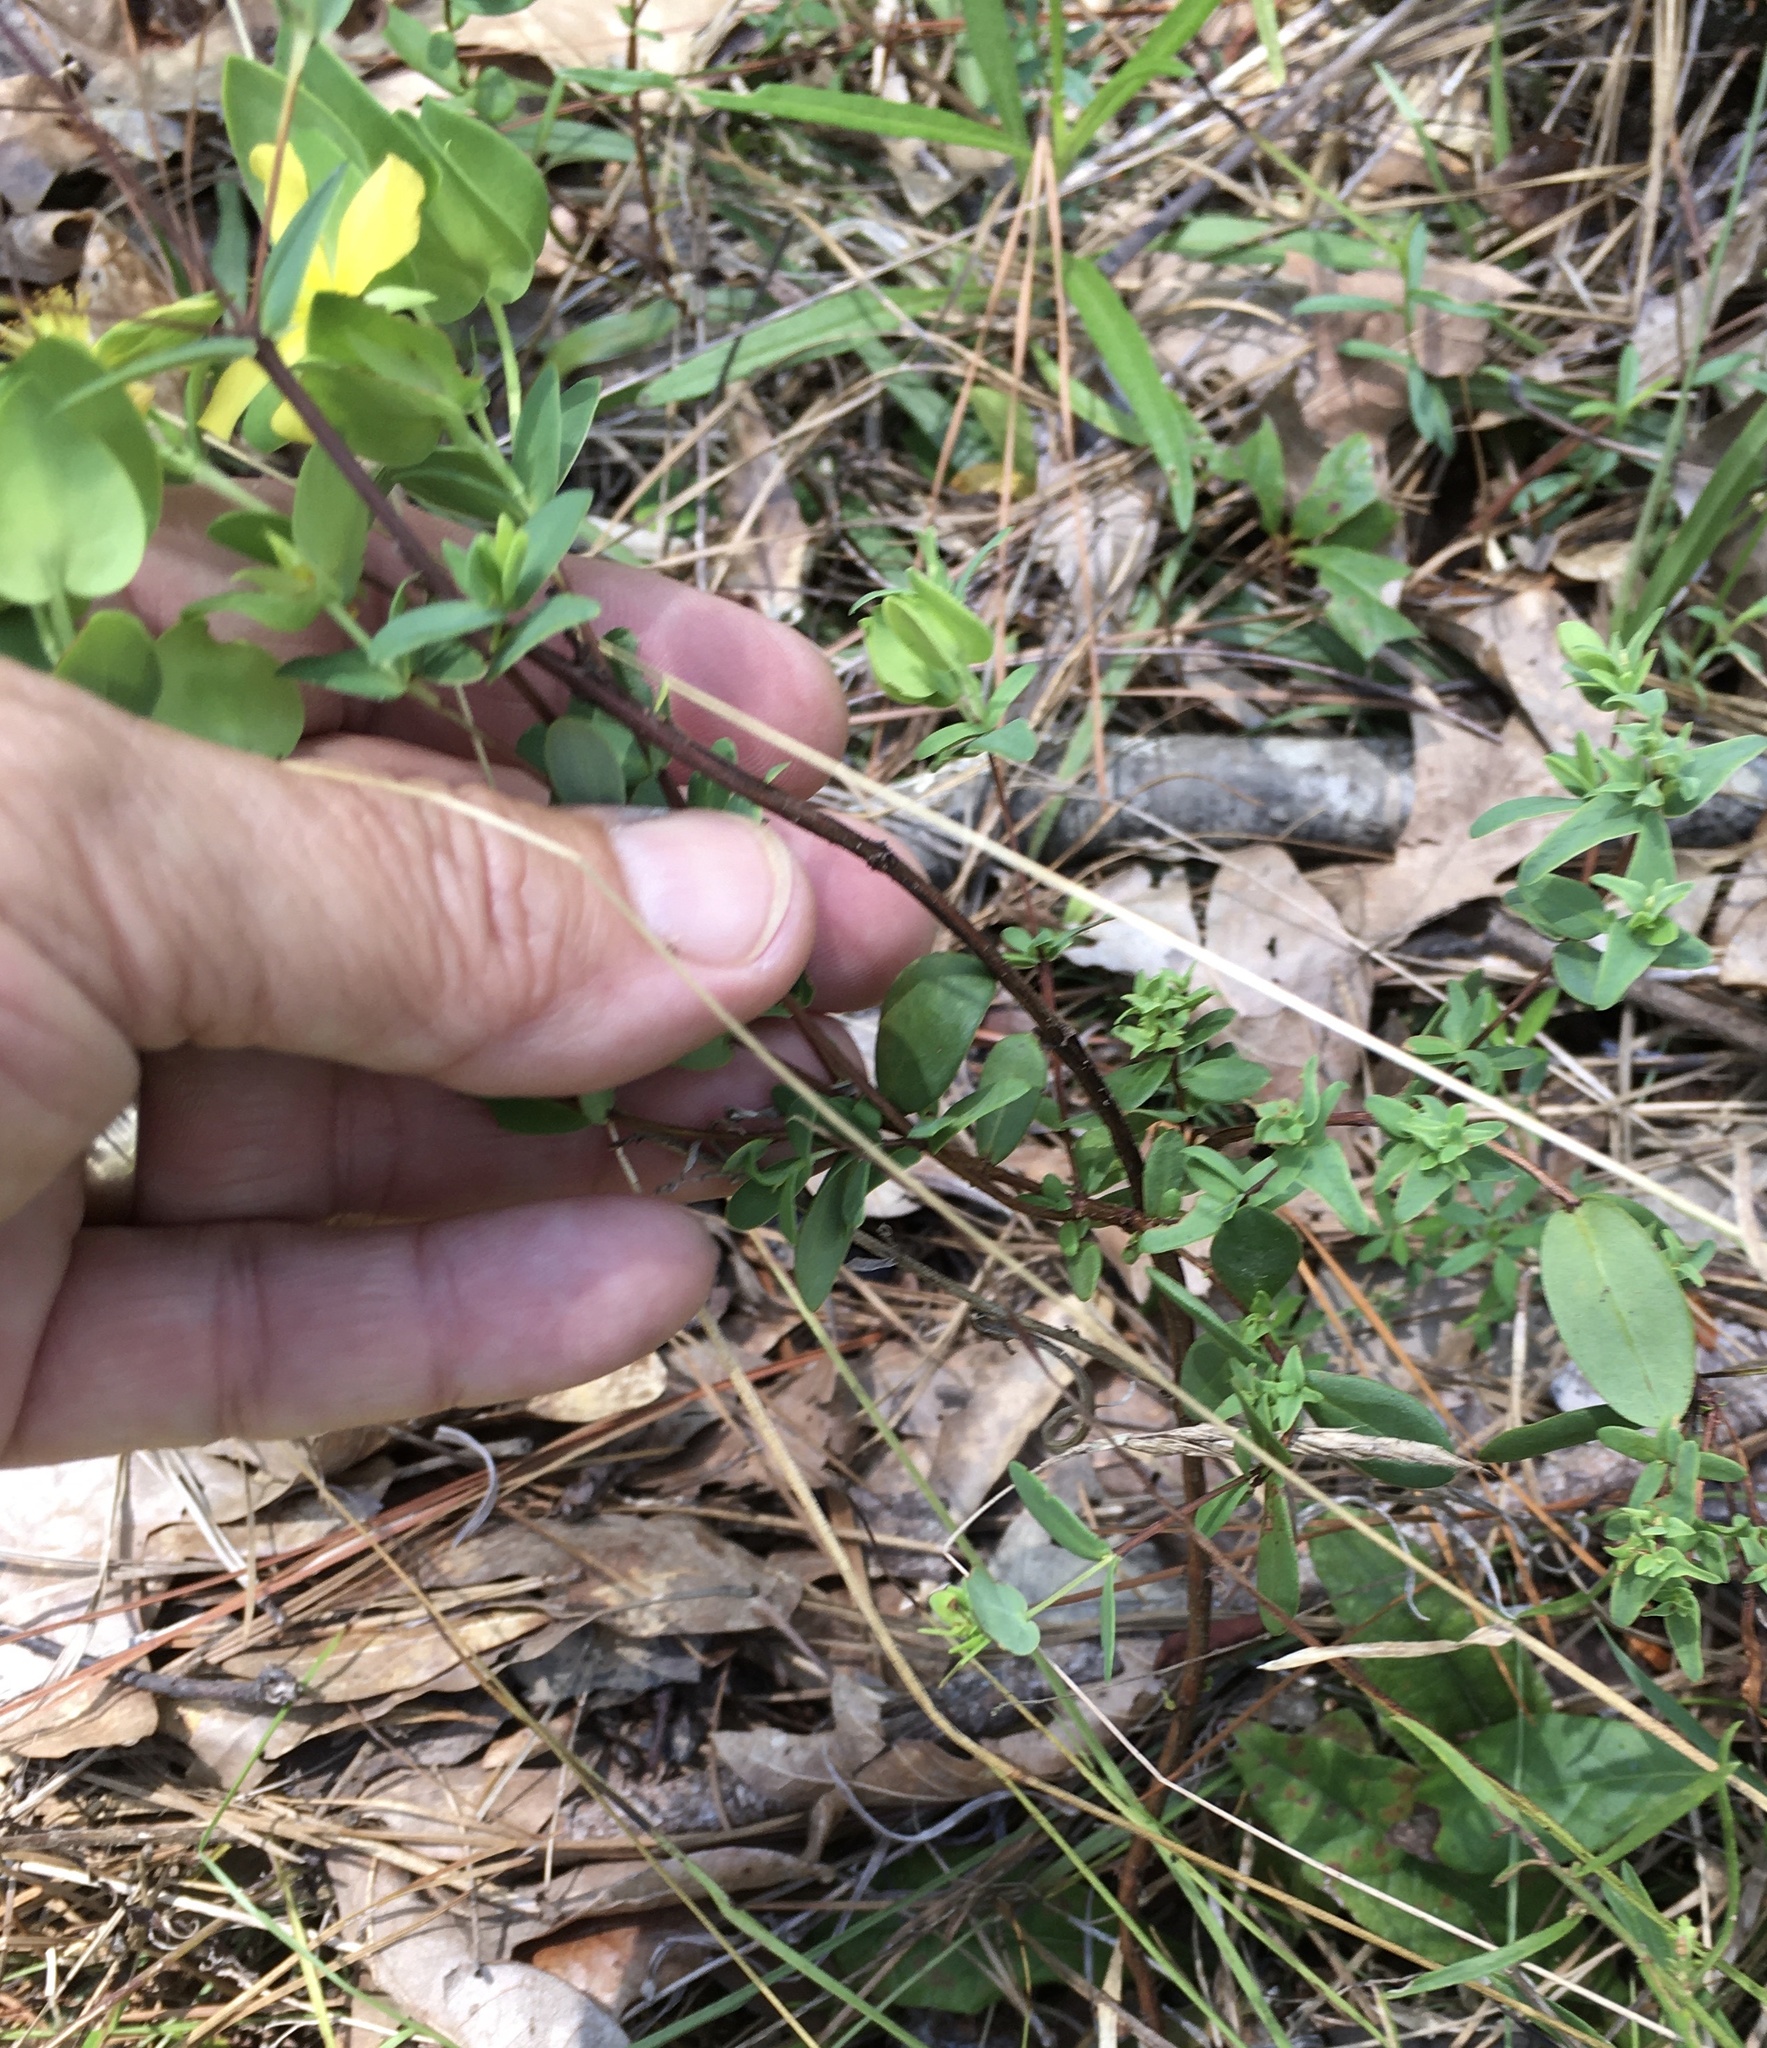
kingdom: Plantae
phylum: Tracheophyta
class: Magnoliopsida
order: Malpighiales
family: Hypericaceae
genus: Hypericum
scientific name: Hypericum crux-andreae
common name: St.-peter's-wort
